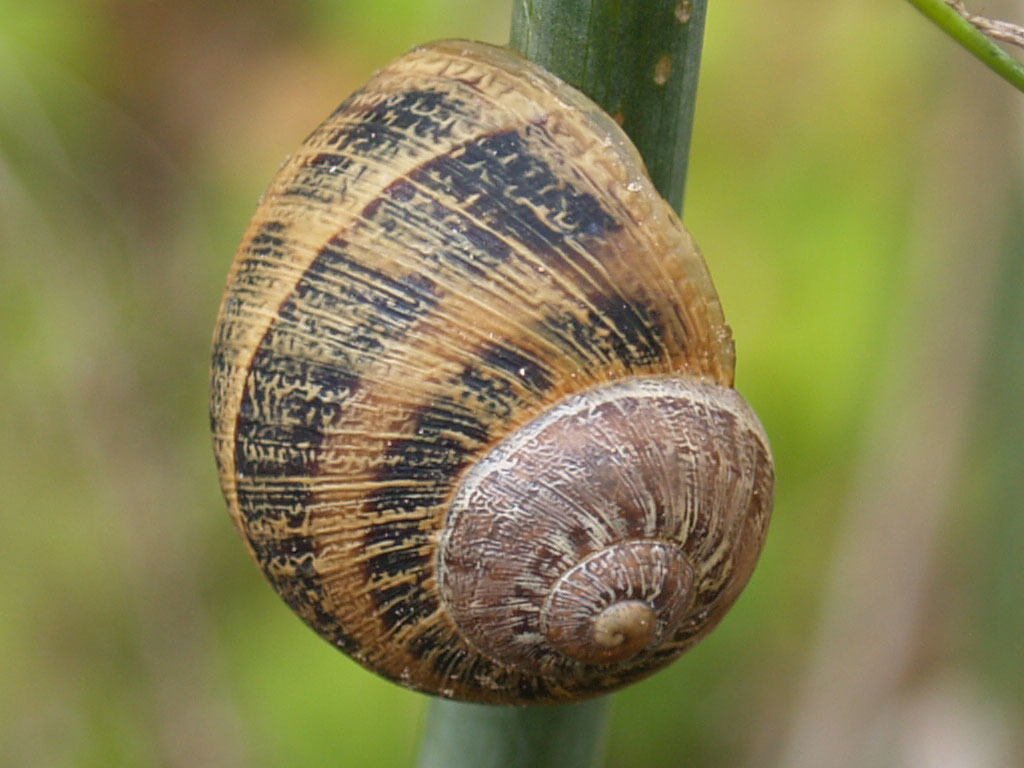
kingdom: Animalia
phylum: Mollusca
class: Gastropoda
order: Stylommatophora
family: Helicidae
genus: Cornu
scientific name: Cornu aspersum
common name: Brown garden snail
